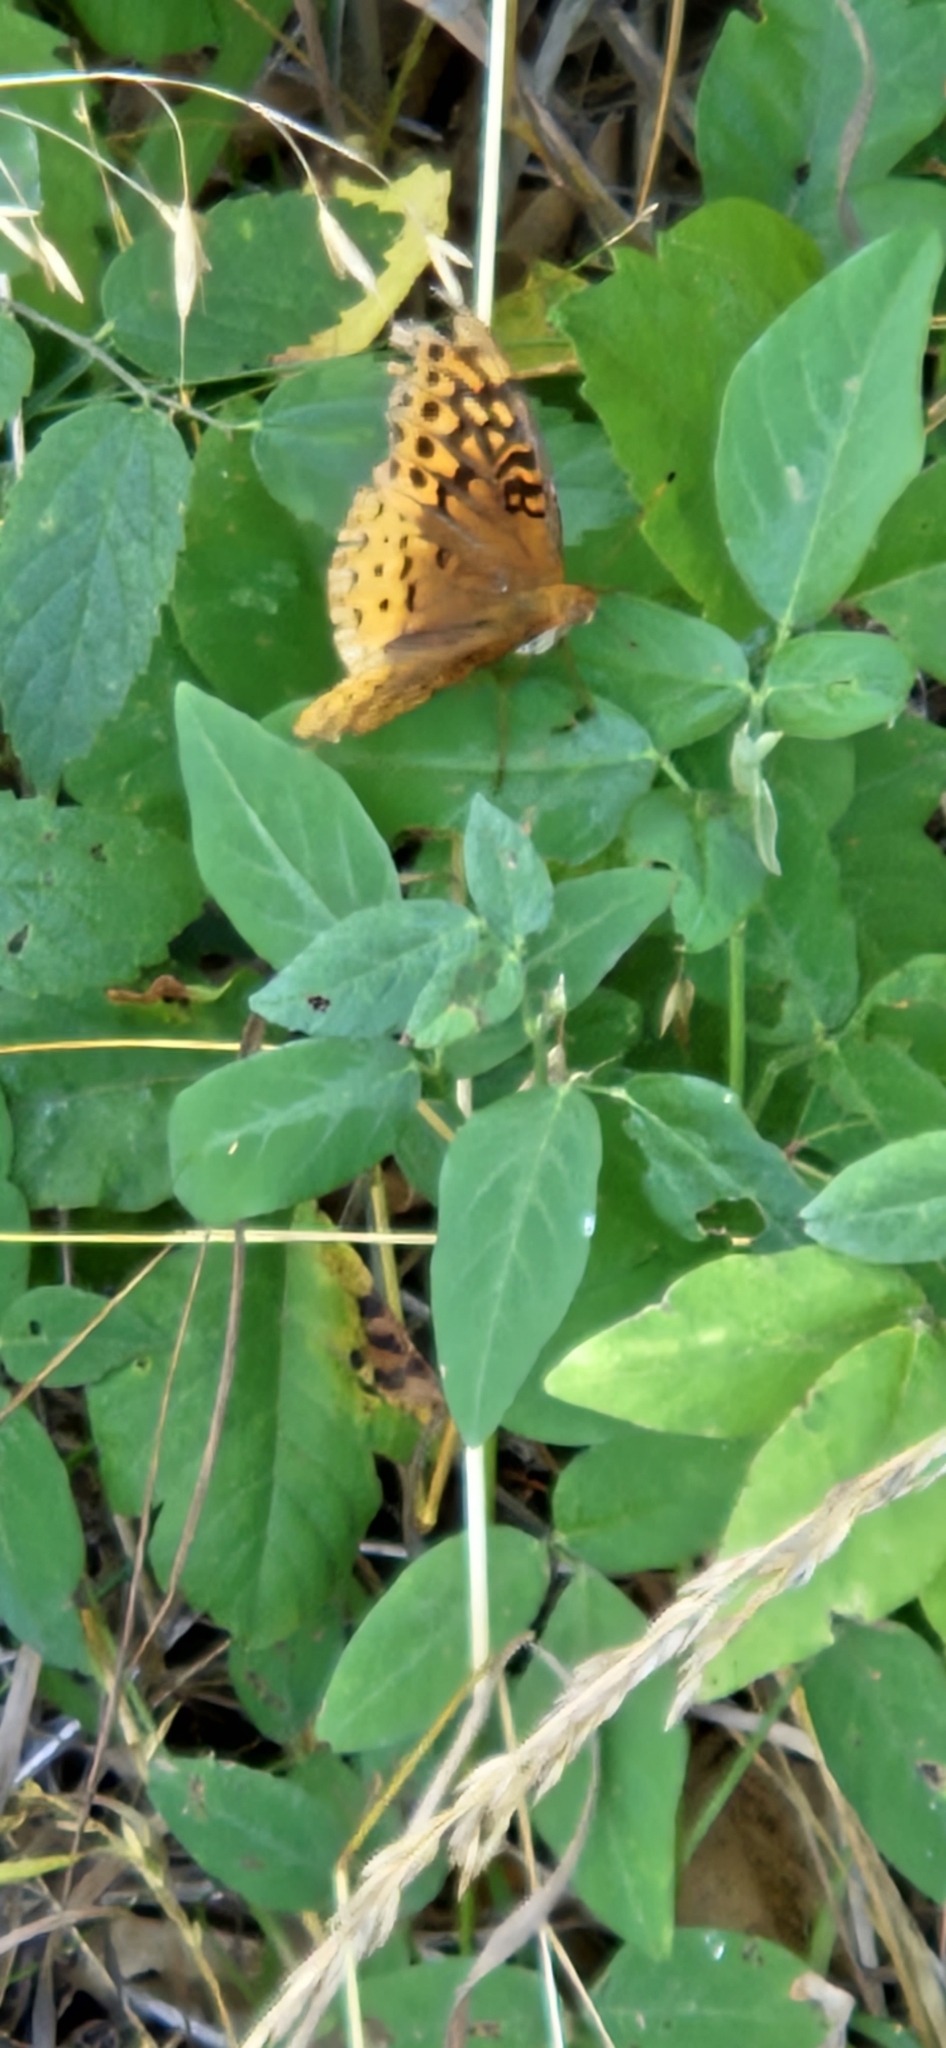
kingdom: Animalia
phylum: Arthropoda
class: Insecta
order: Lepidoptera
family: Nymphalidae
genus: Speyeria
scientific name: Speyeria cybele
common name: Great spangled fritillary
